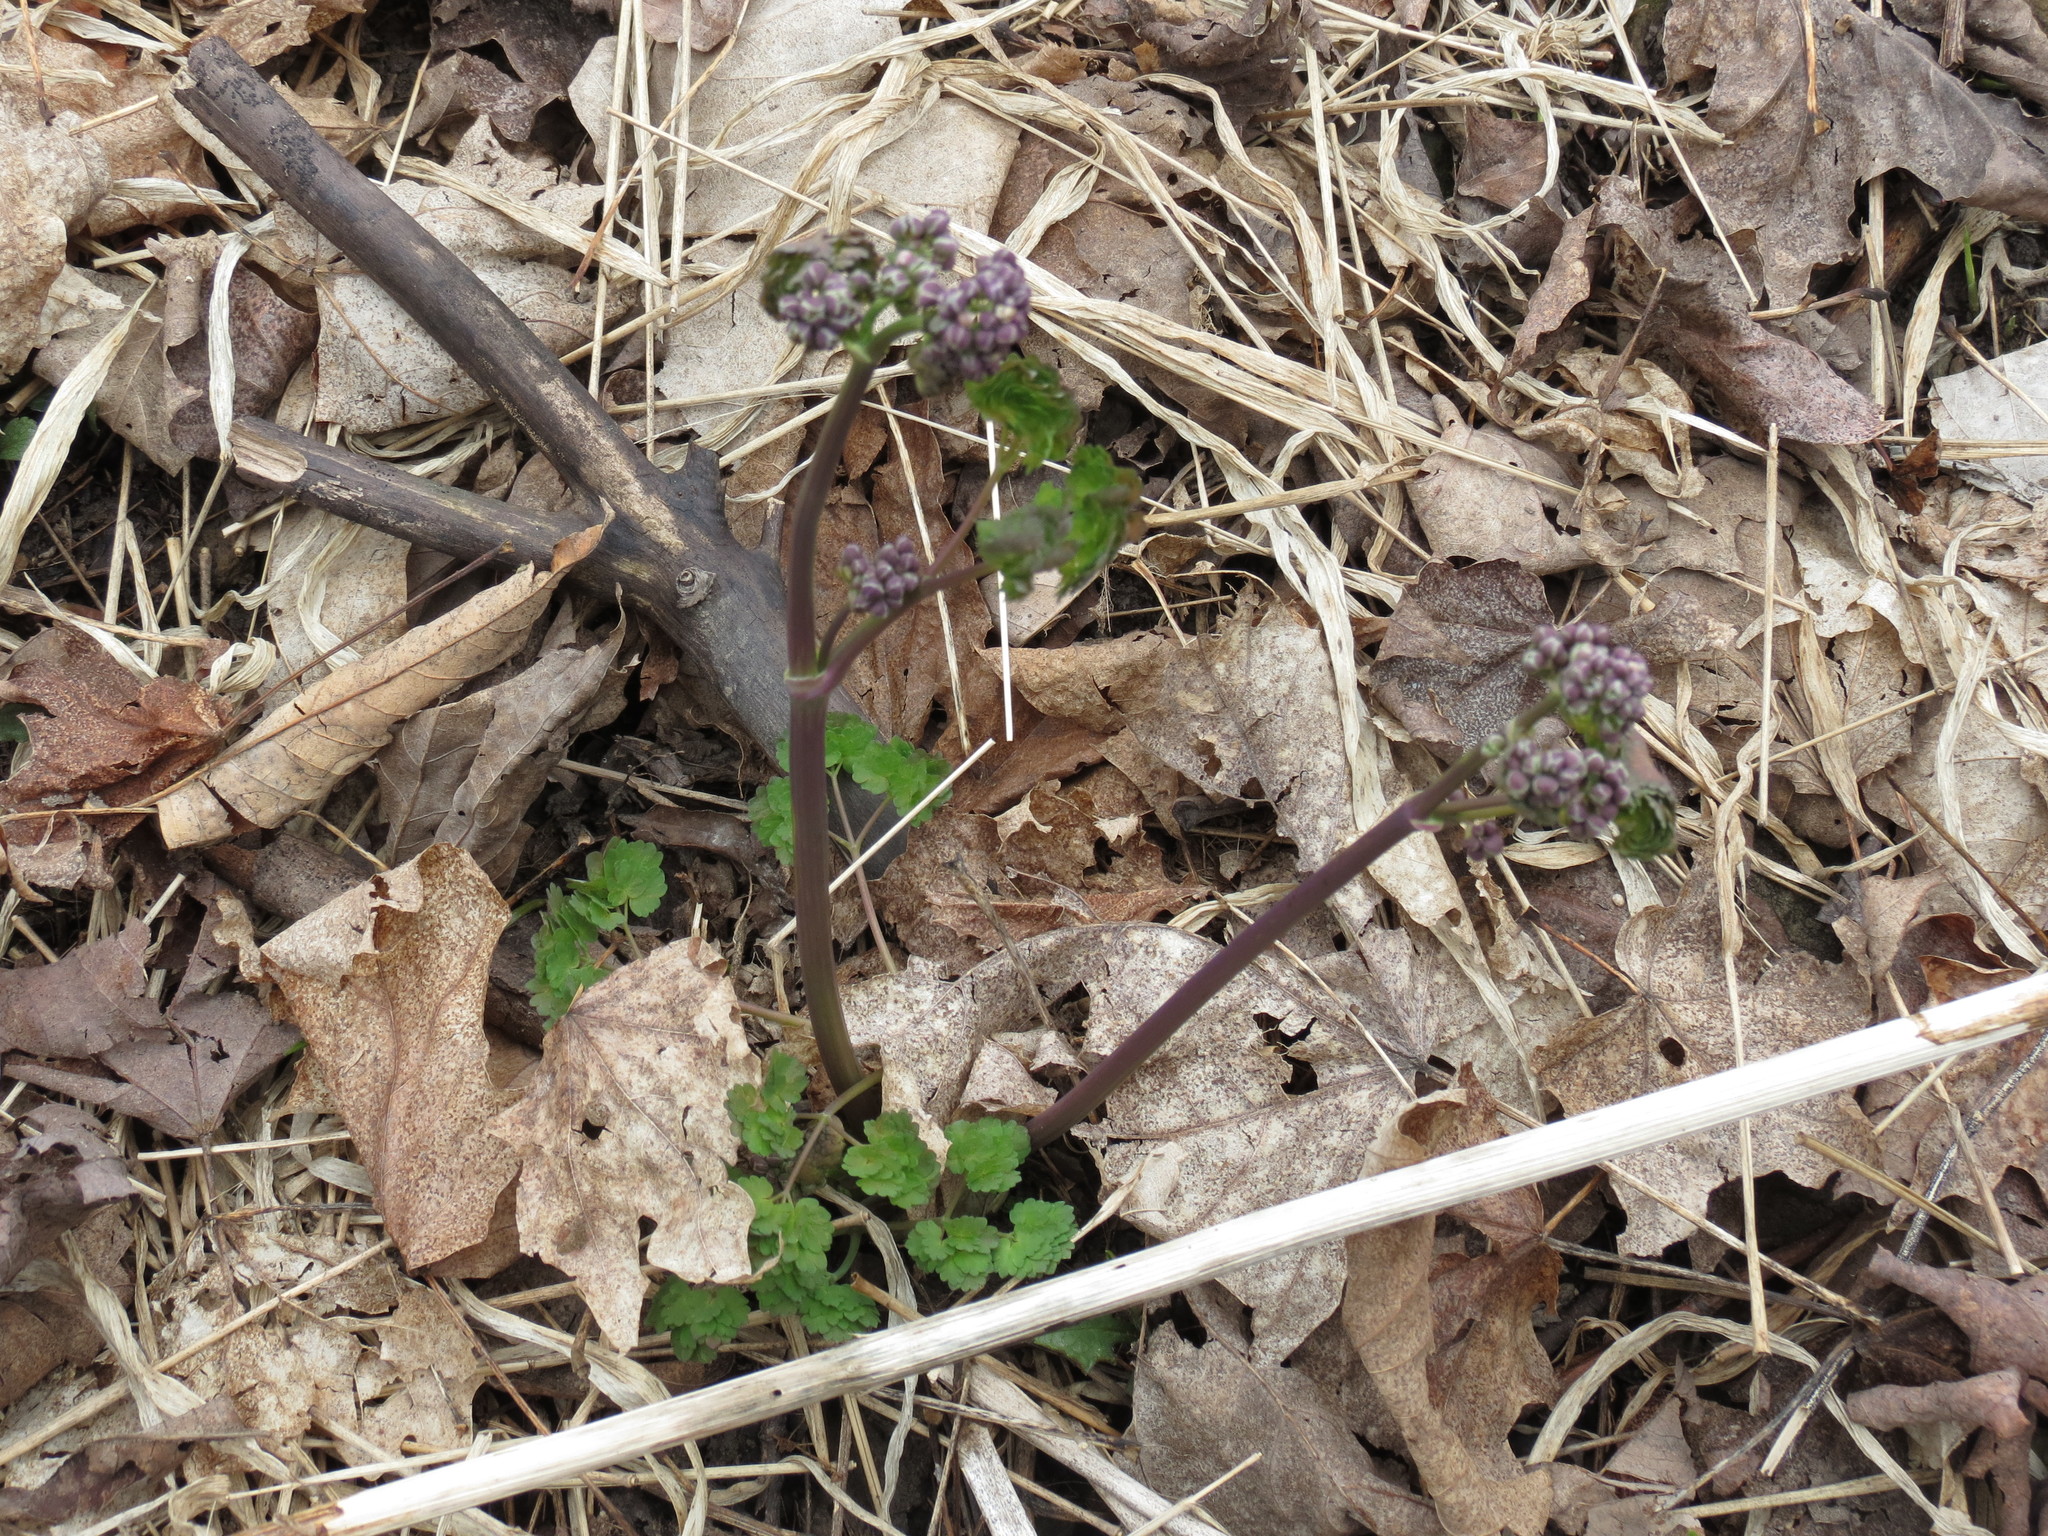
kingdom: Plantae
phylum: Tracheophyta
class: Magnoliopsida
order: Ranunculales
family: Ranunculaceae
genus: Thalictrum
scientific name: Thalictrum dioicum
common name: Early meadow-rue
